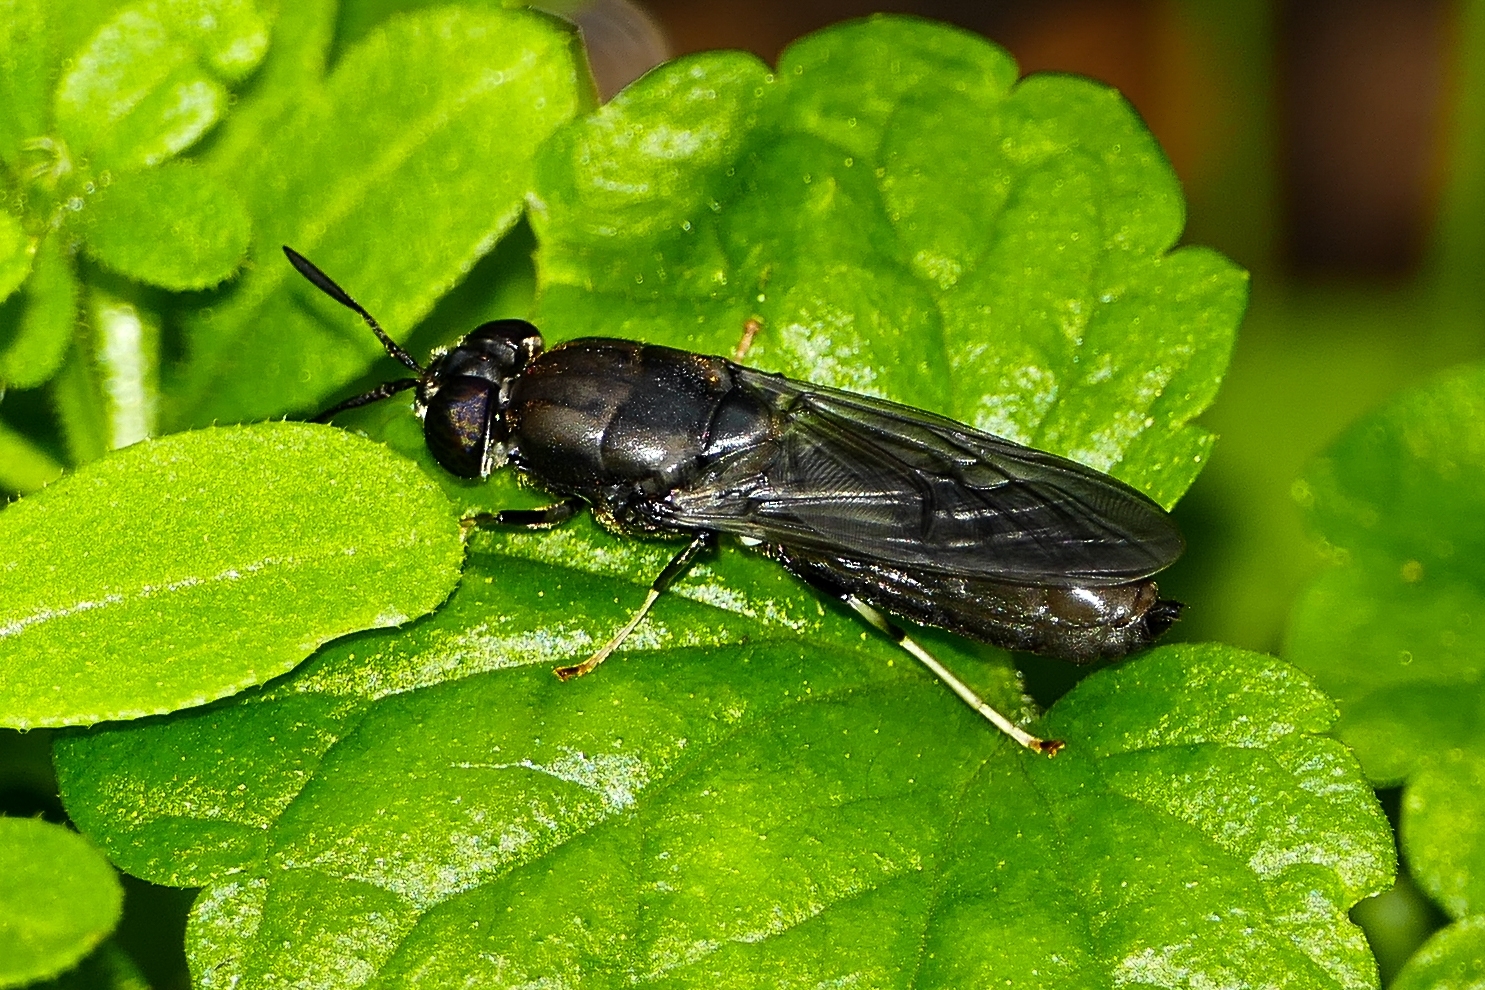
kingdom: Animalia
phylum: Arthropoda
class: Insecta
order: Diptera
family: Stratiomyidae
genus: Hermetia
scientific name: Hermetia illucens
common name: Black soldier fly
